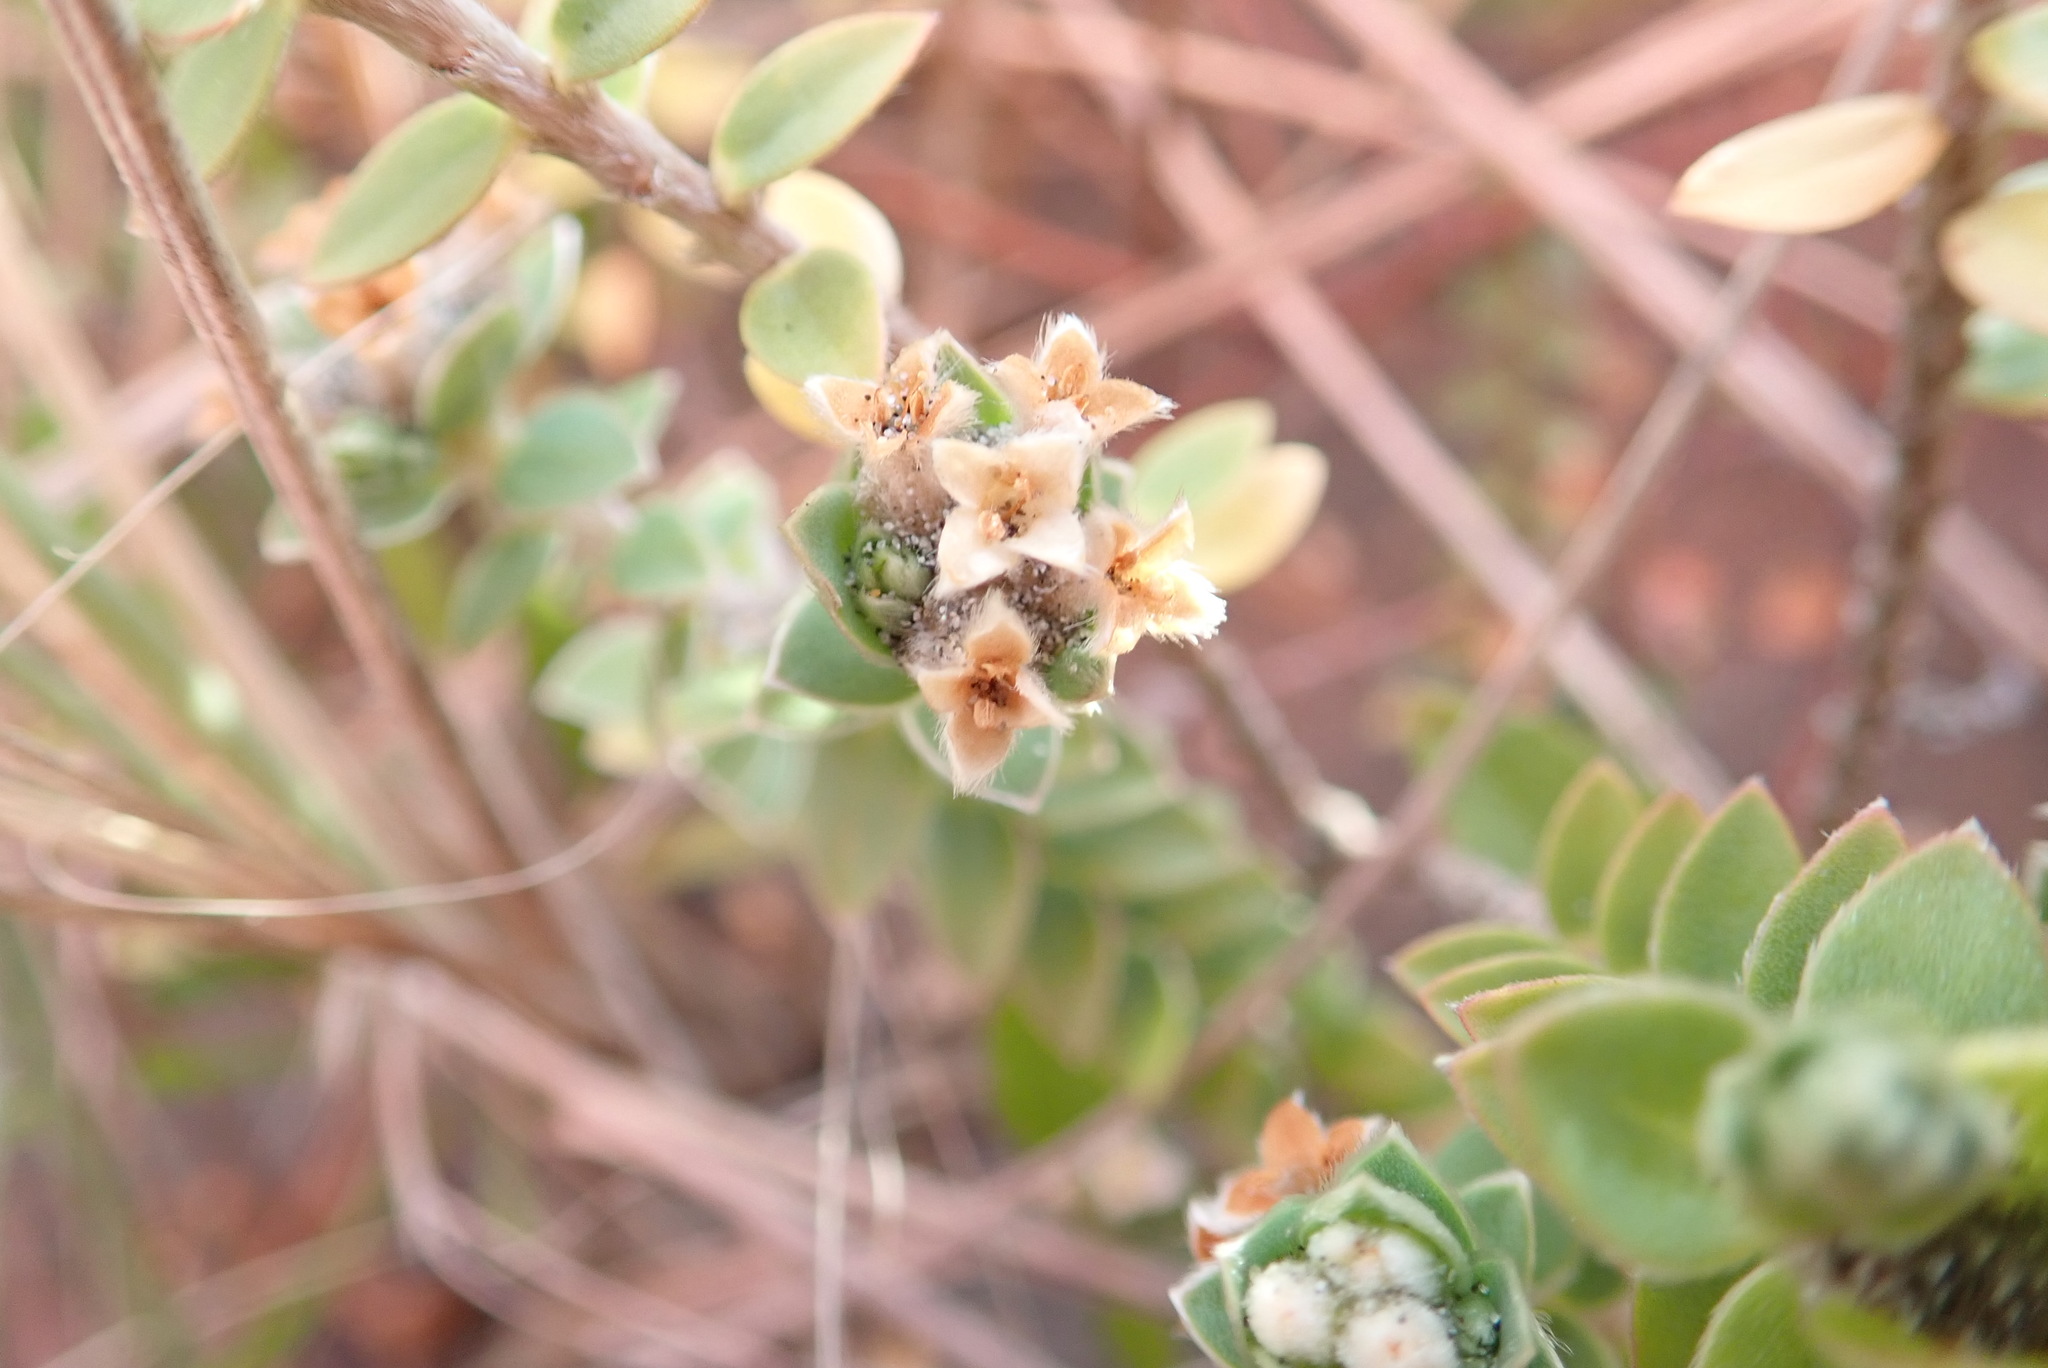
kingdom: Plantae
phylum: Tracheophyta
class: Magnoliopsida
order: Malvales
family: Thymelaeaceae
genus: Pimelea
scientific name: Pimelea villosa
